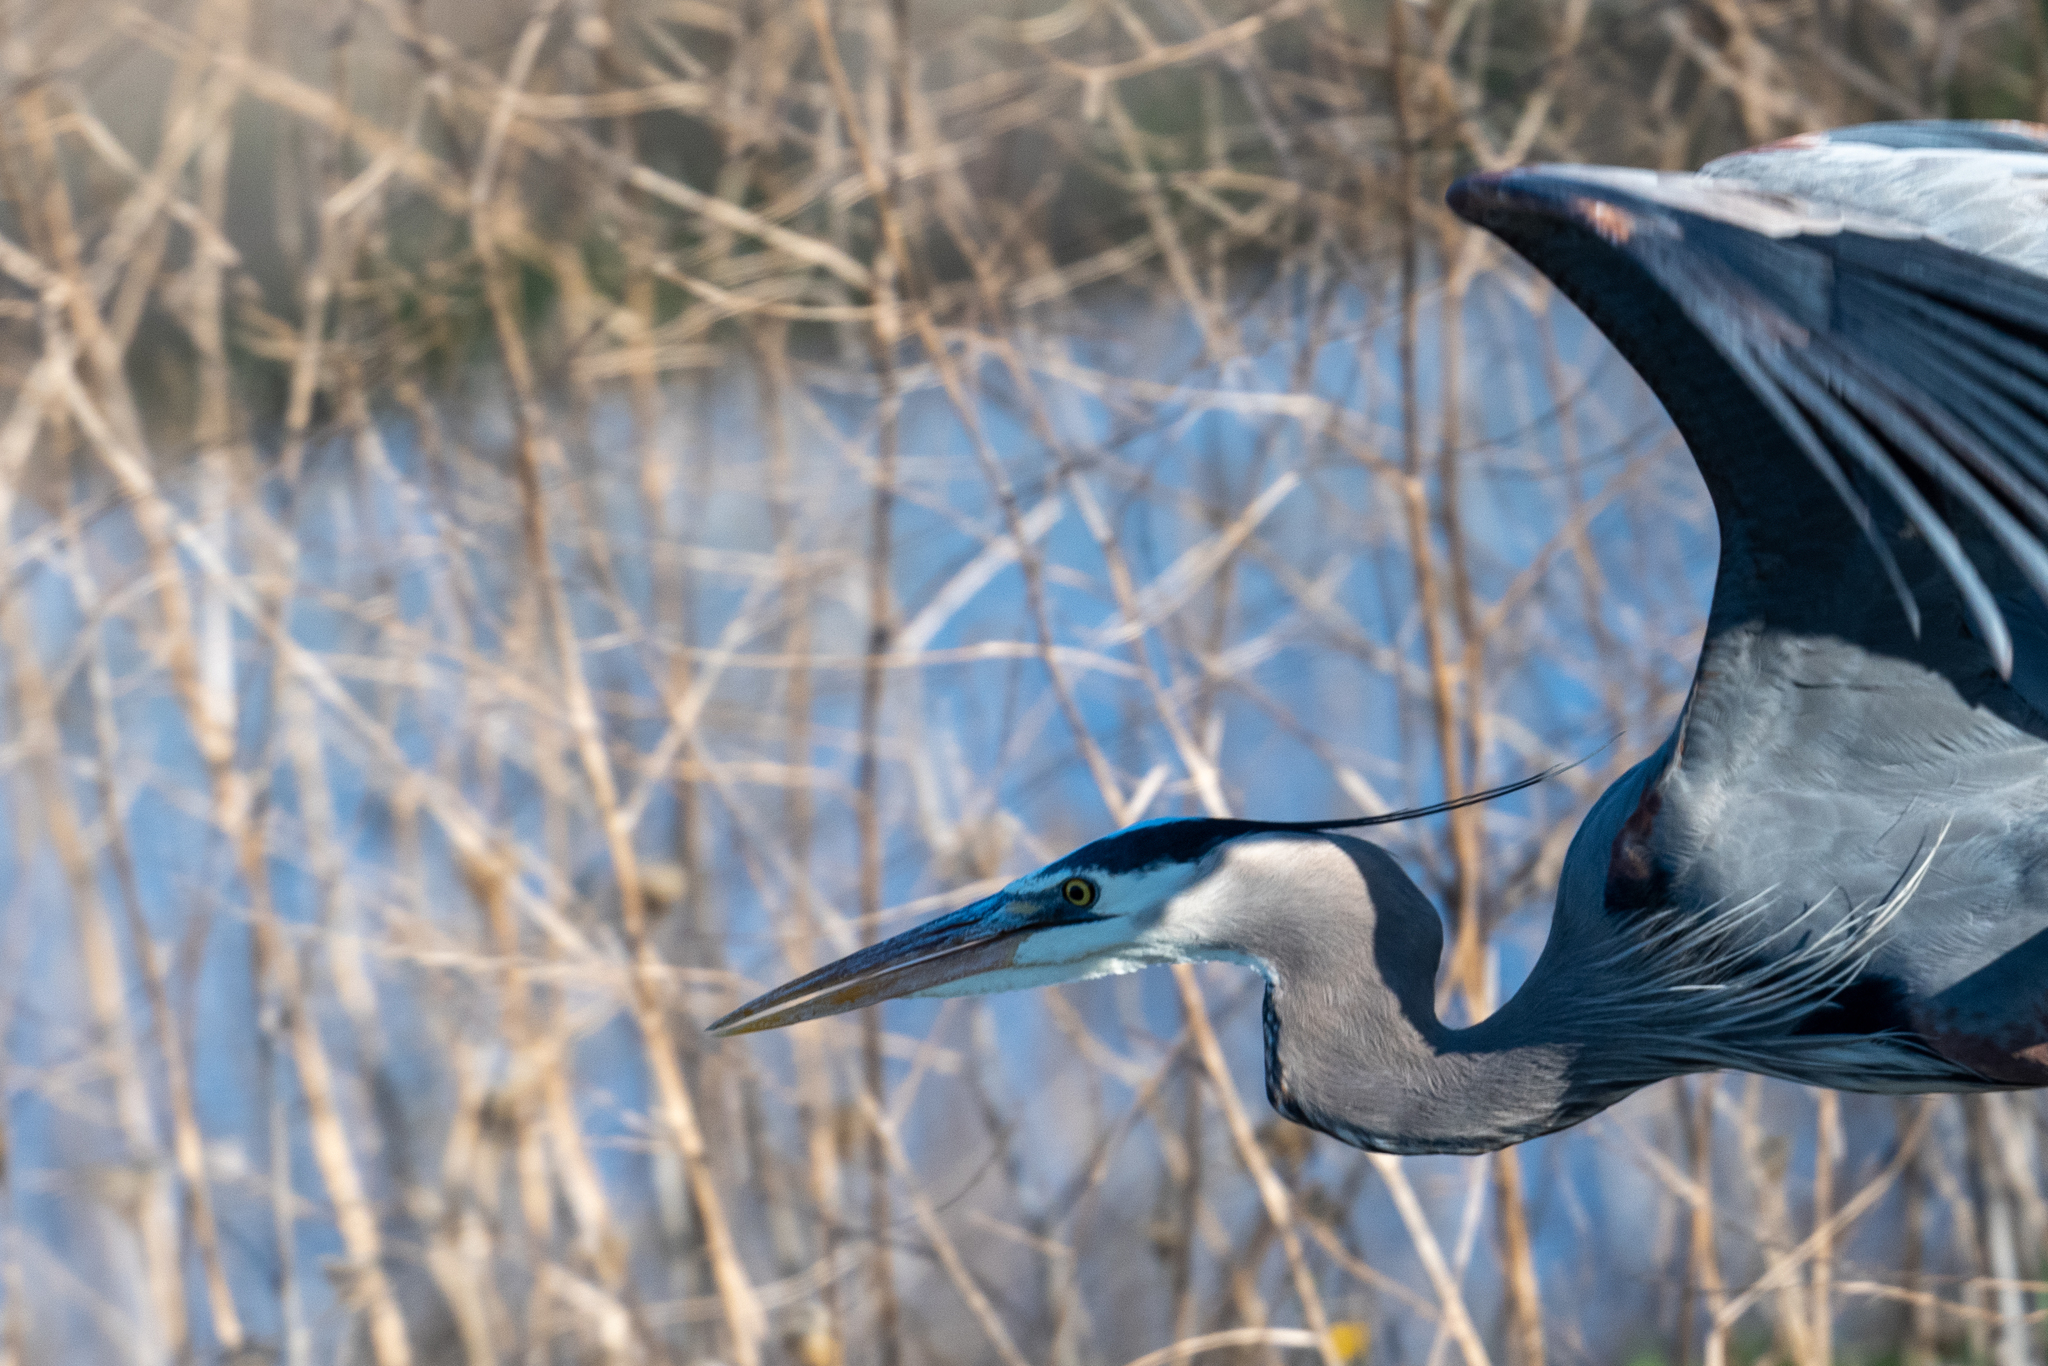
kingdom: Animalia
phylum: Chordata
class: Aves
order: Pelecaniformes
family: Ardeidae
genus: Ardea
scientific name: Ardea herodias
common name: Great blue heron
